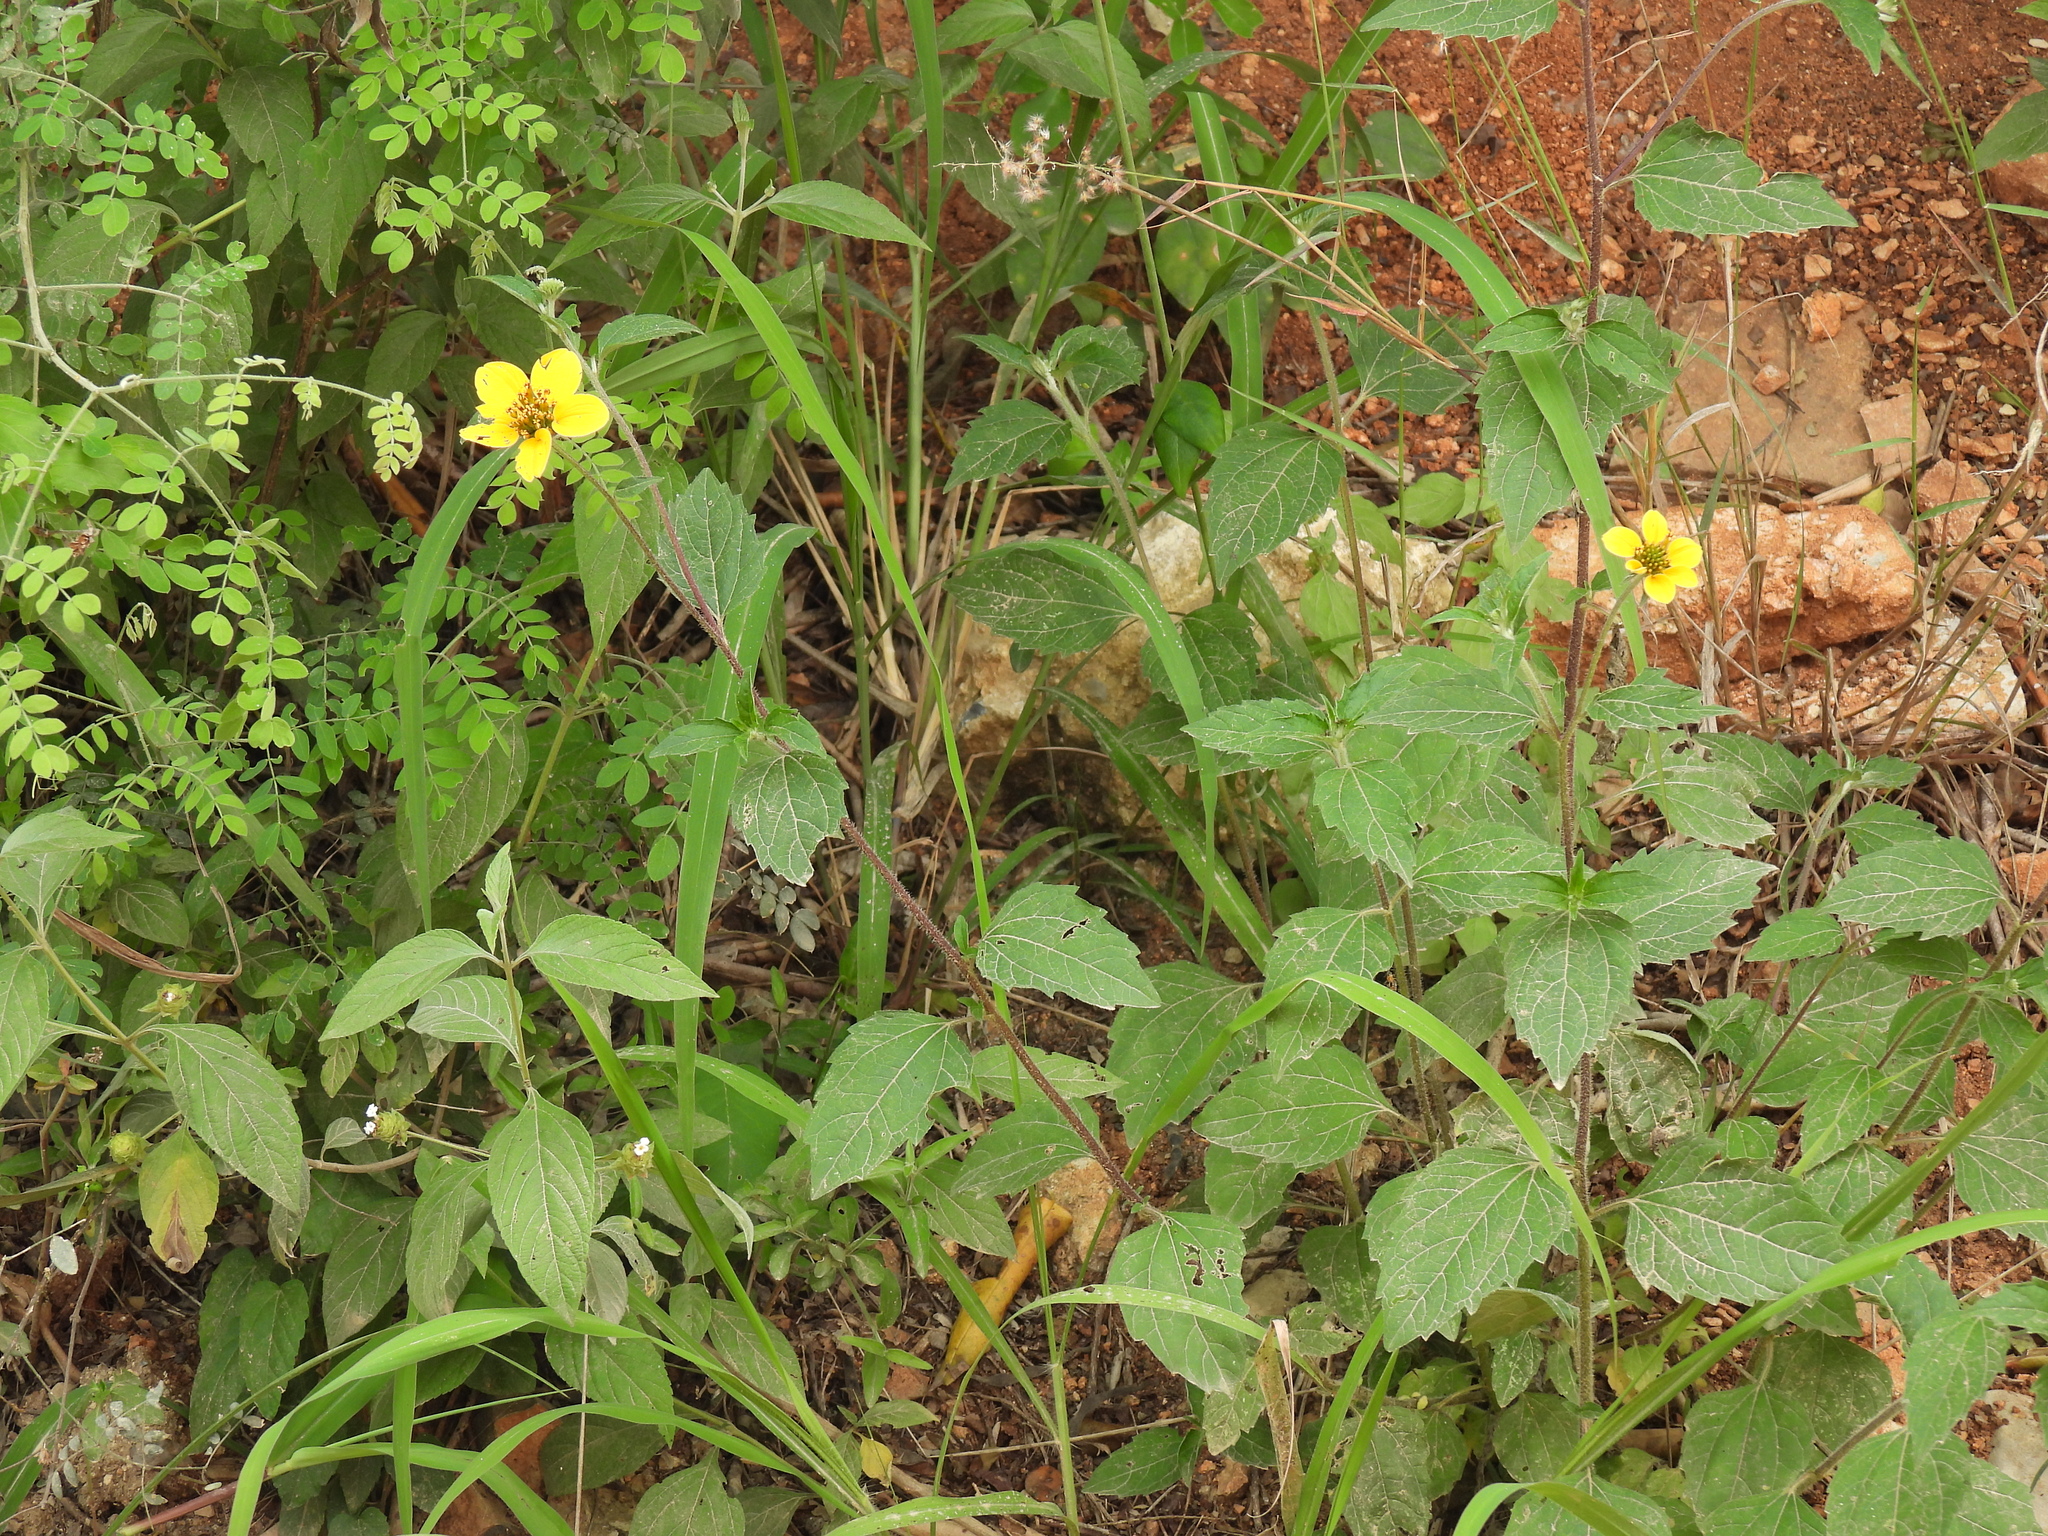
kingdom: Plantae
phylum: Tracheophyta
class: Magnoliopsida
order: Asterales
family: Asteraceae
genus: Sclerocarpus
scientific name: Sclerocarpus uniserialis
